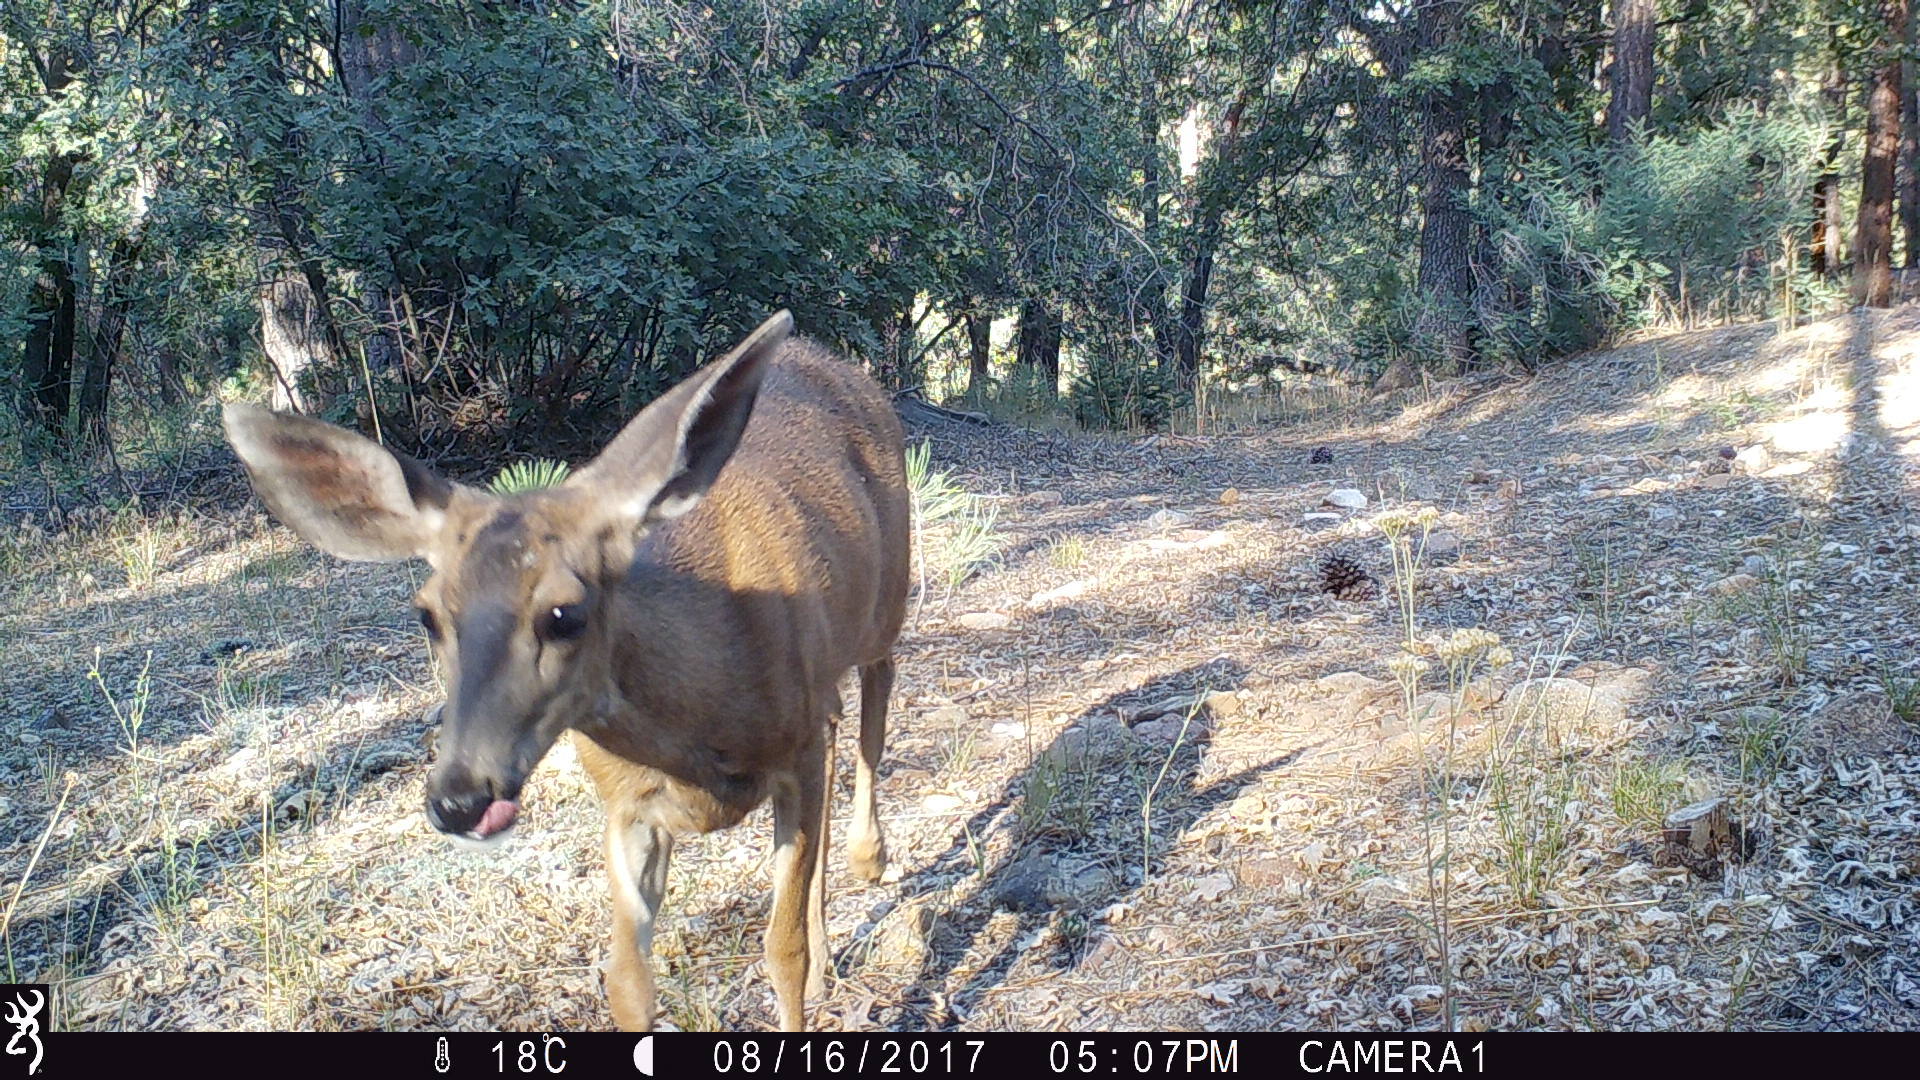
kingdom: Animalia
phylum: Chordata
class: Mammalia
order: Artiodactyla
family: Cervidae
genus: Odocoileus
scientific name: Odocoileus hemionus
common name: Mule deer
